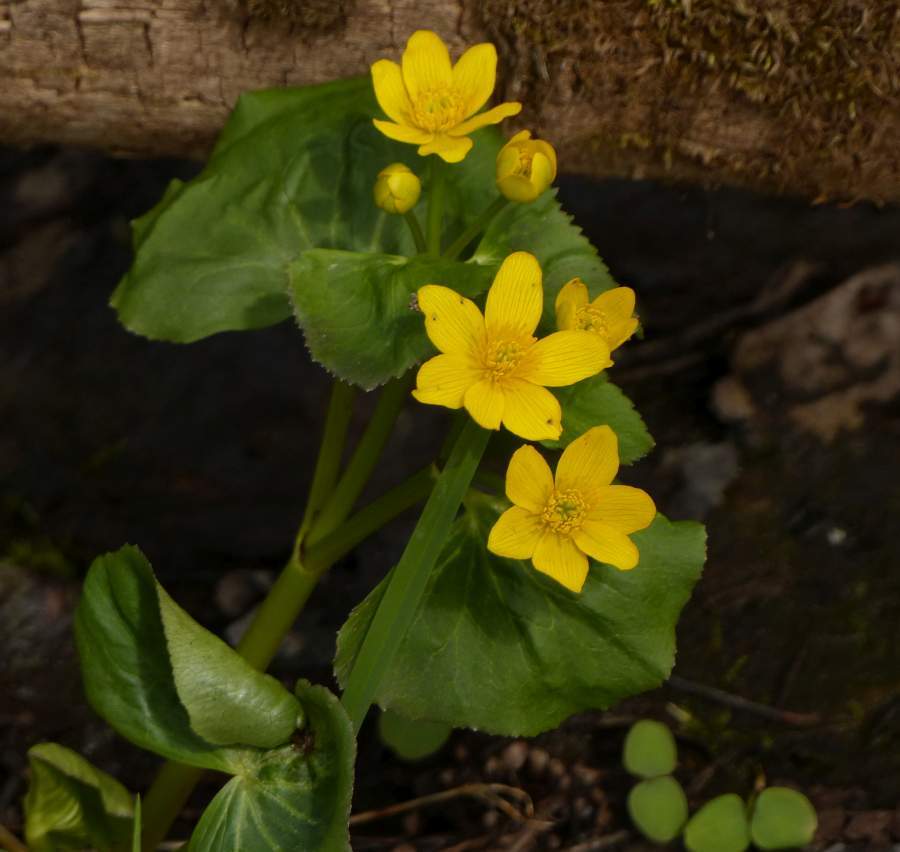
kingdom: Plantae
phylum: Tracheophyta
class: Magnoliopsida
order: Ranunculales
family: Ranunculaceae
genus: Caltha
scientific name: Caltha palustris
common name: Marsh marigold
